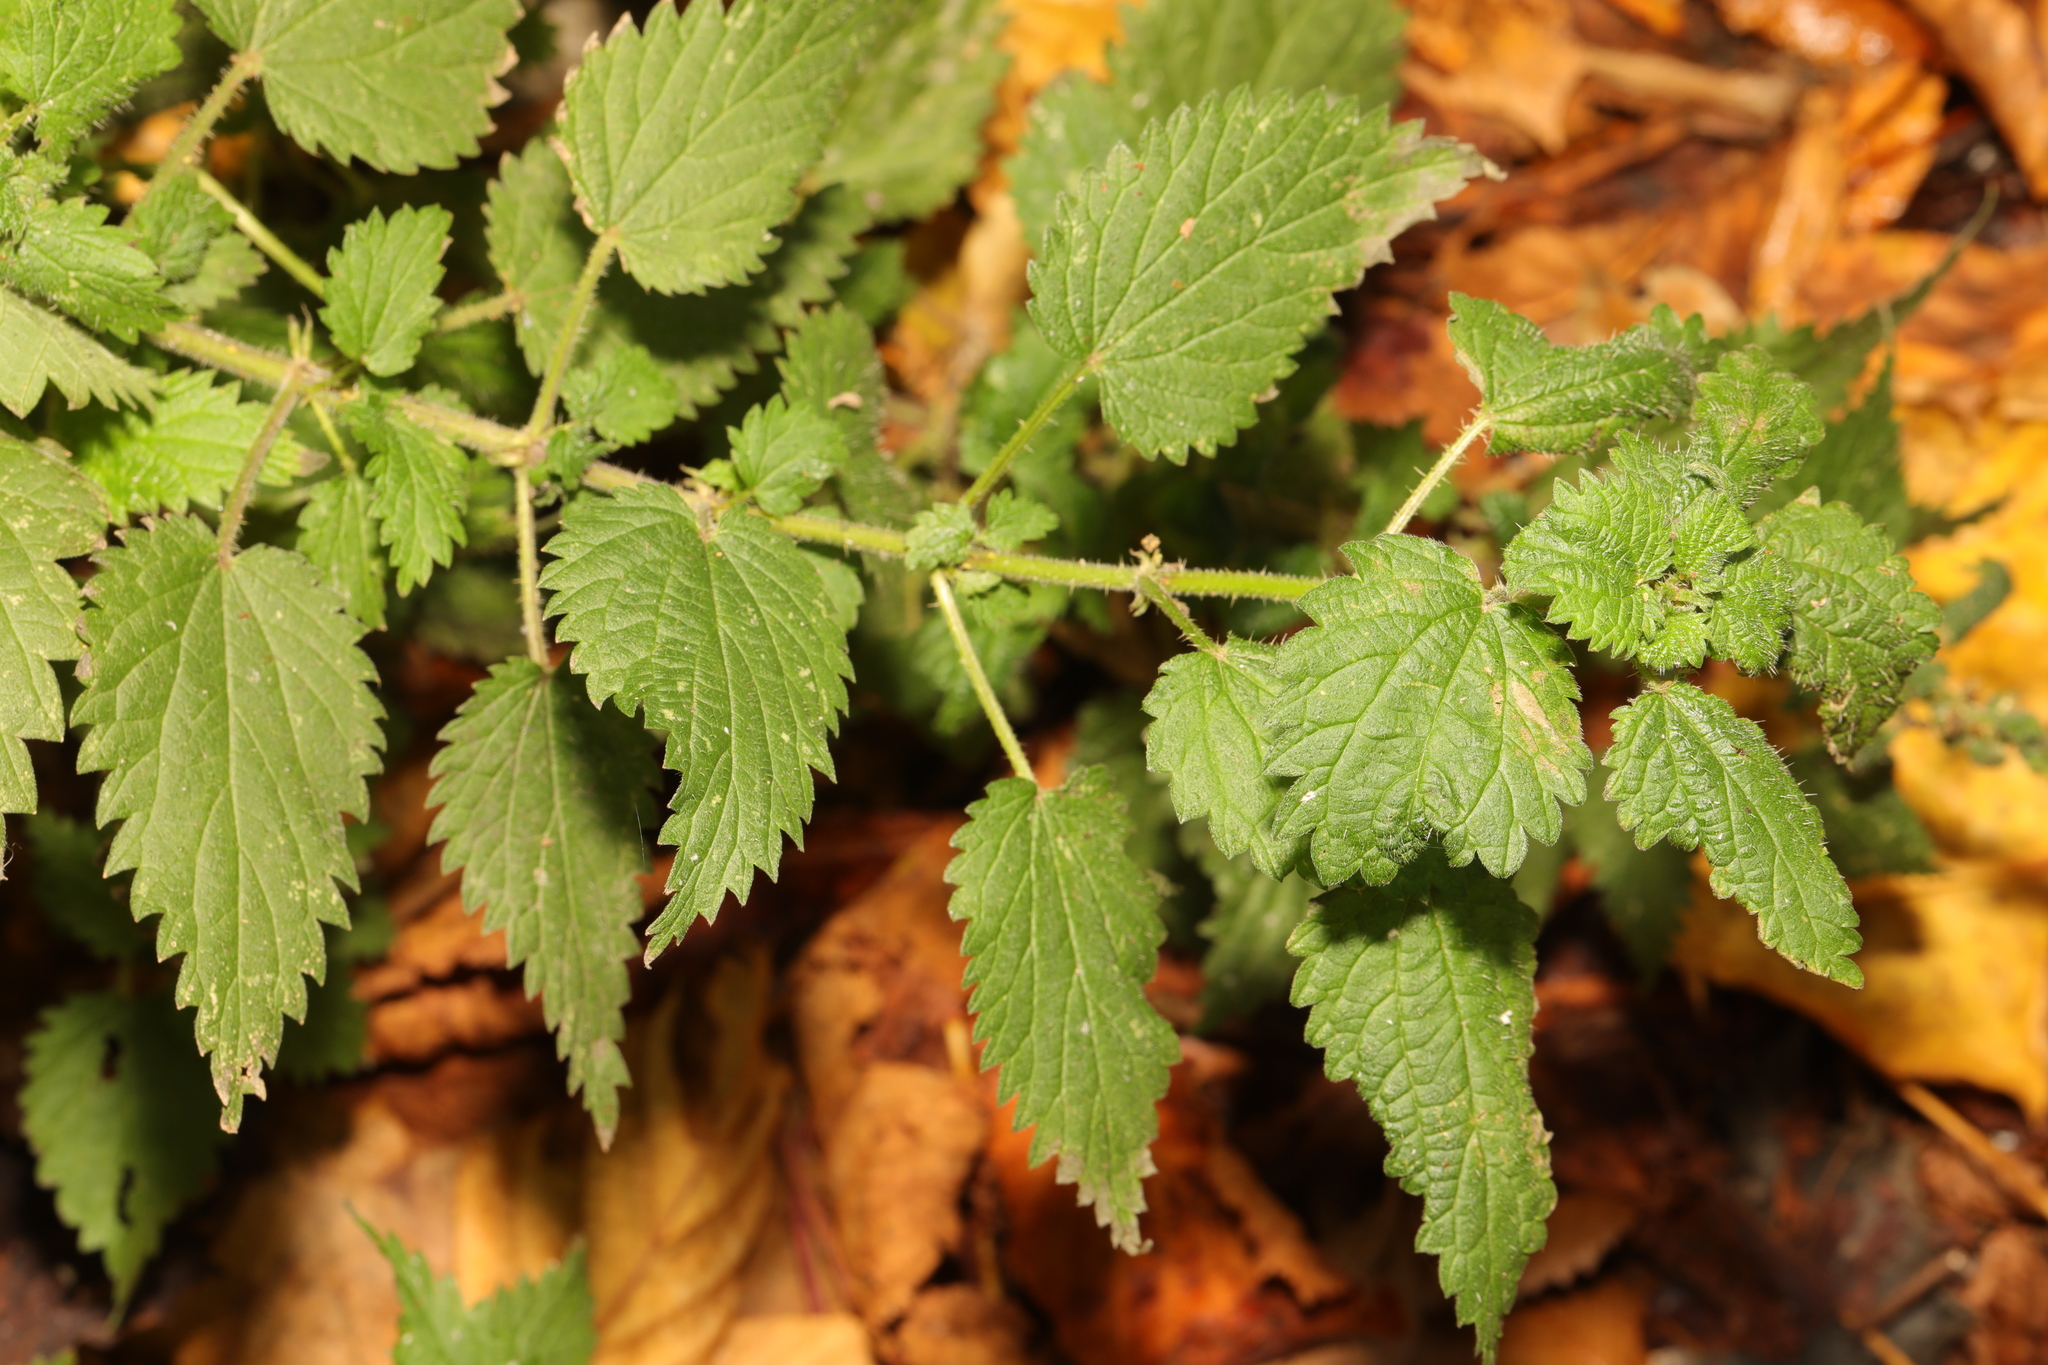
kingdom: Plantae
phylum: Tracheophyta
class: Magnoliopsida
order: Rosales
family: Urticaceae
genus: Urtica
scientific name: Urtica dioica
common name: Common nettle
